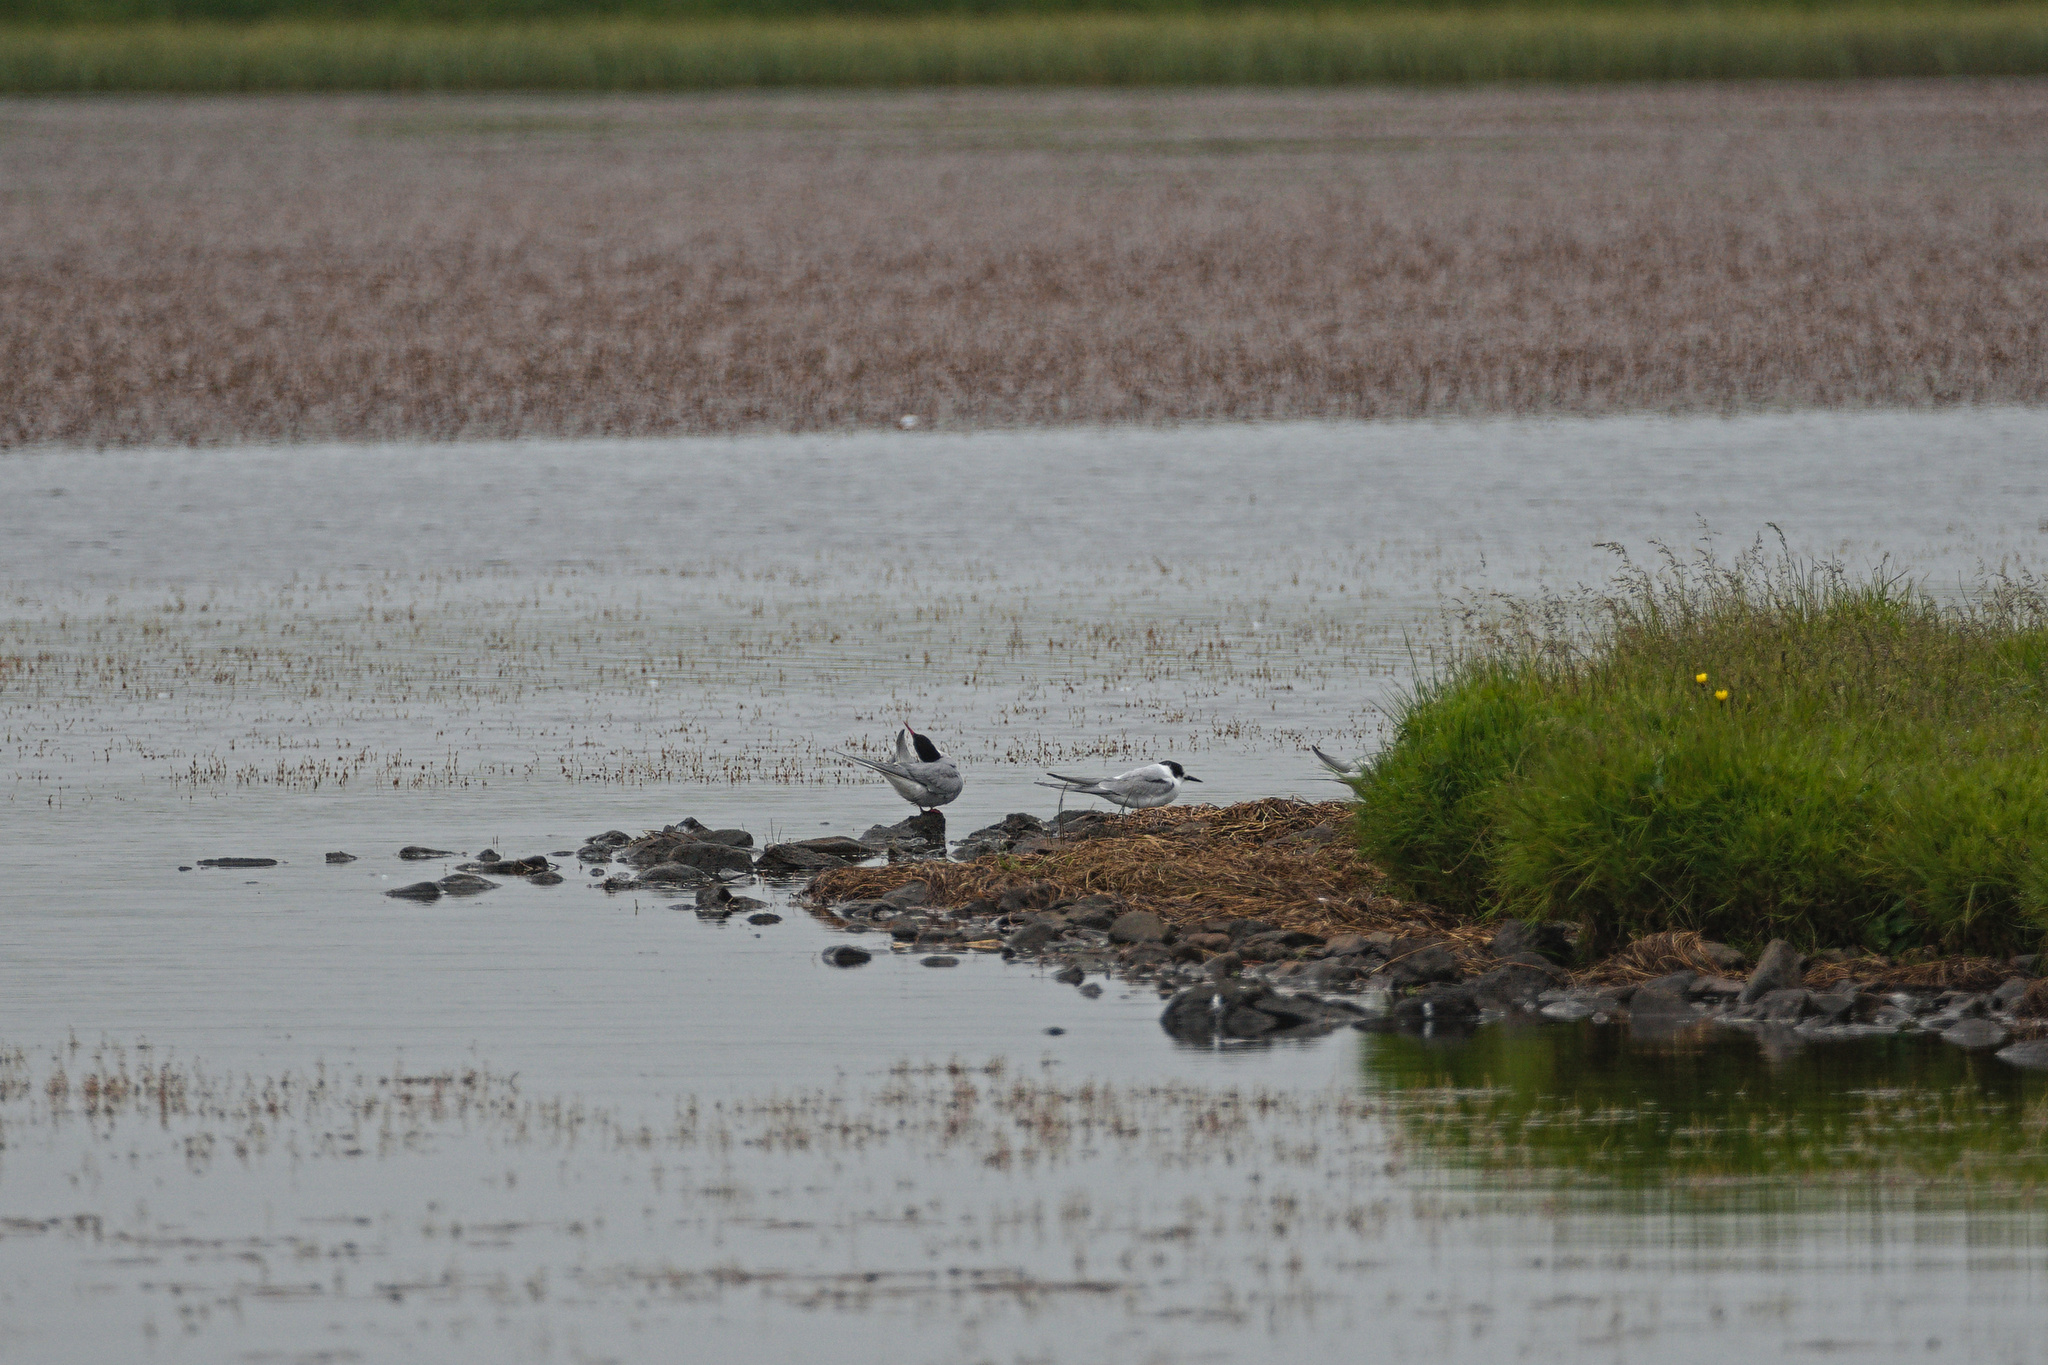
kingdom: Animalia
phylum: Chordata
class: Aves
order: Charadriiformes
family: Laridae
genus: Sterna
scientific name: Sterna paradisaea
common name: Arctic tern
